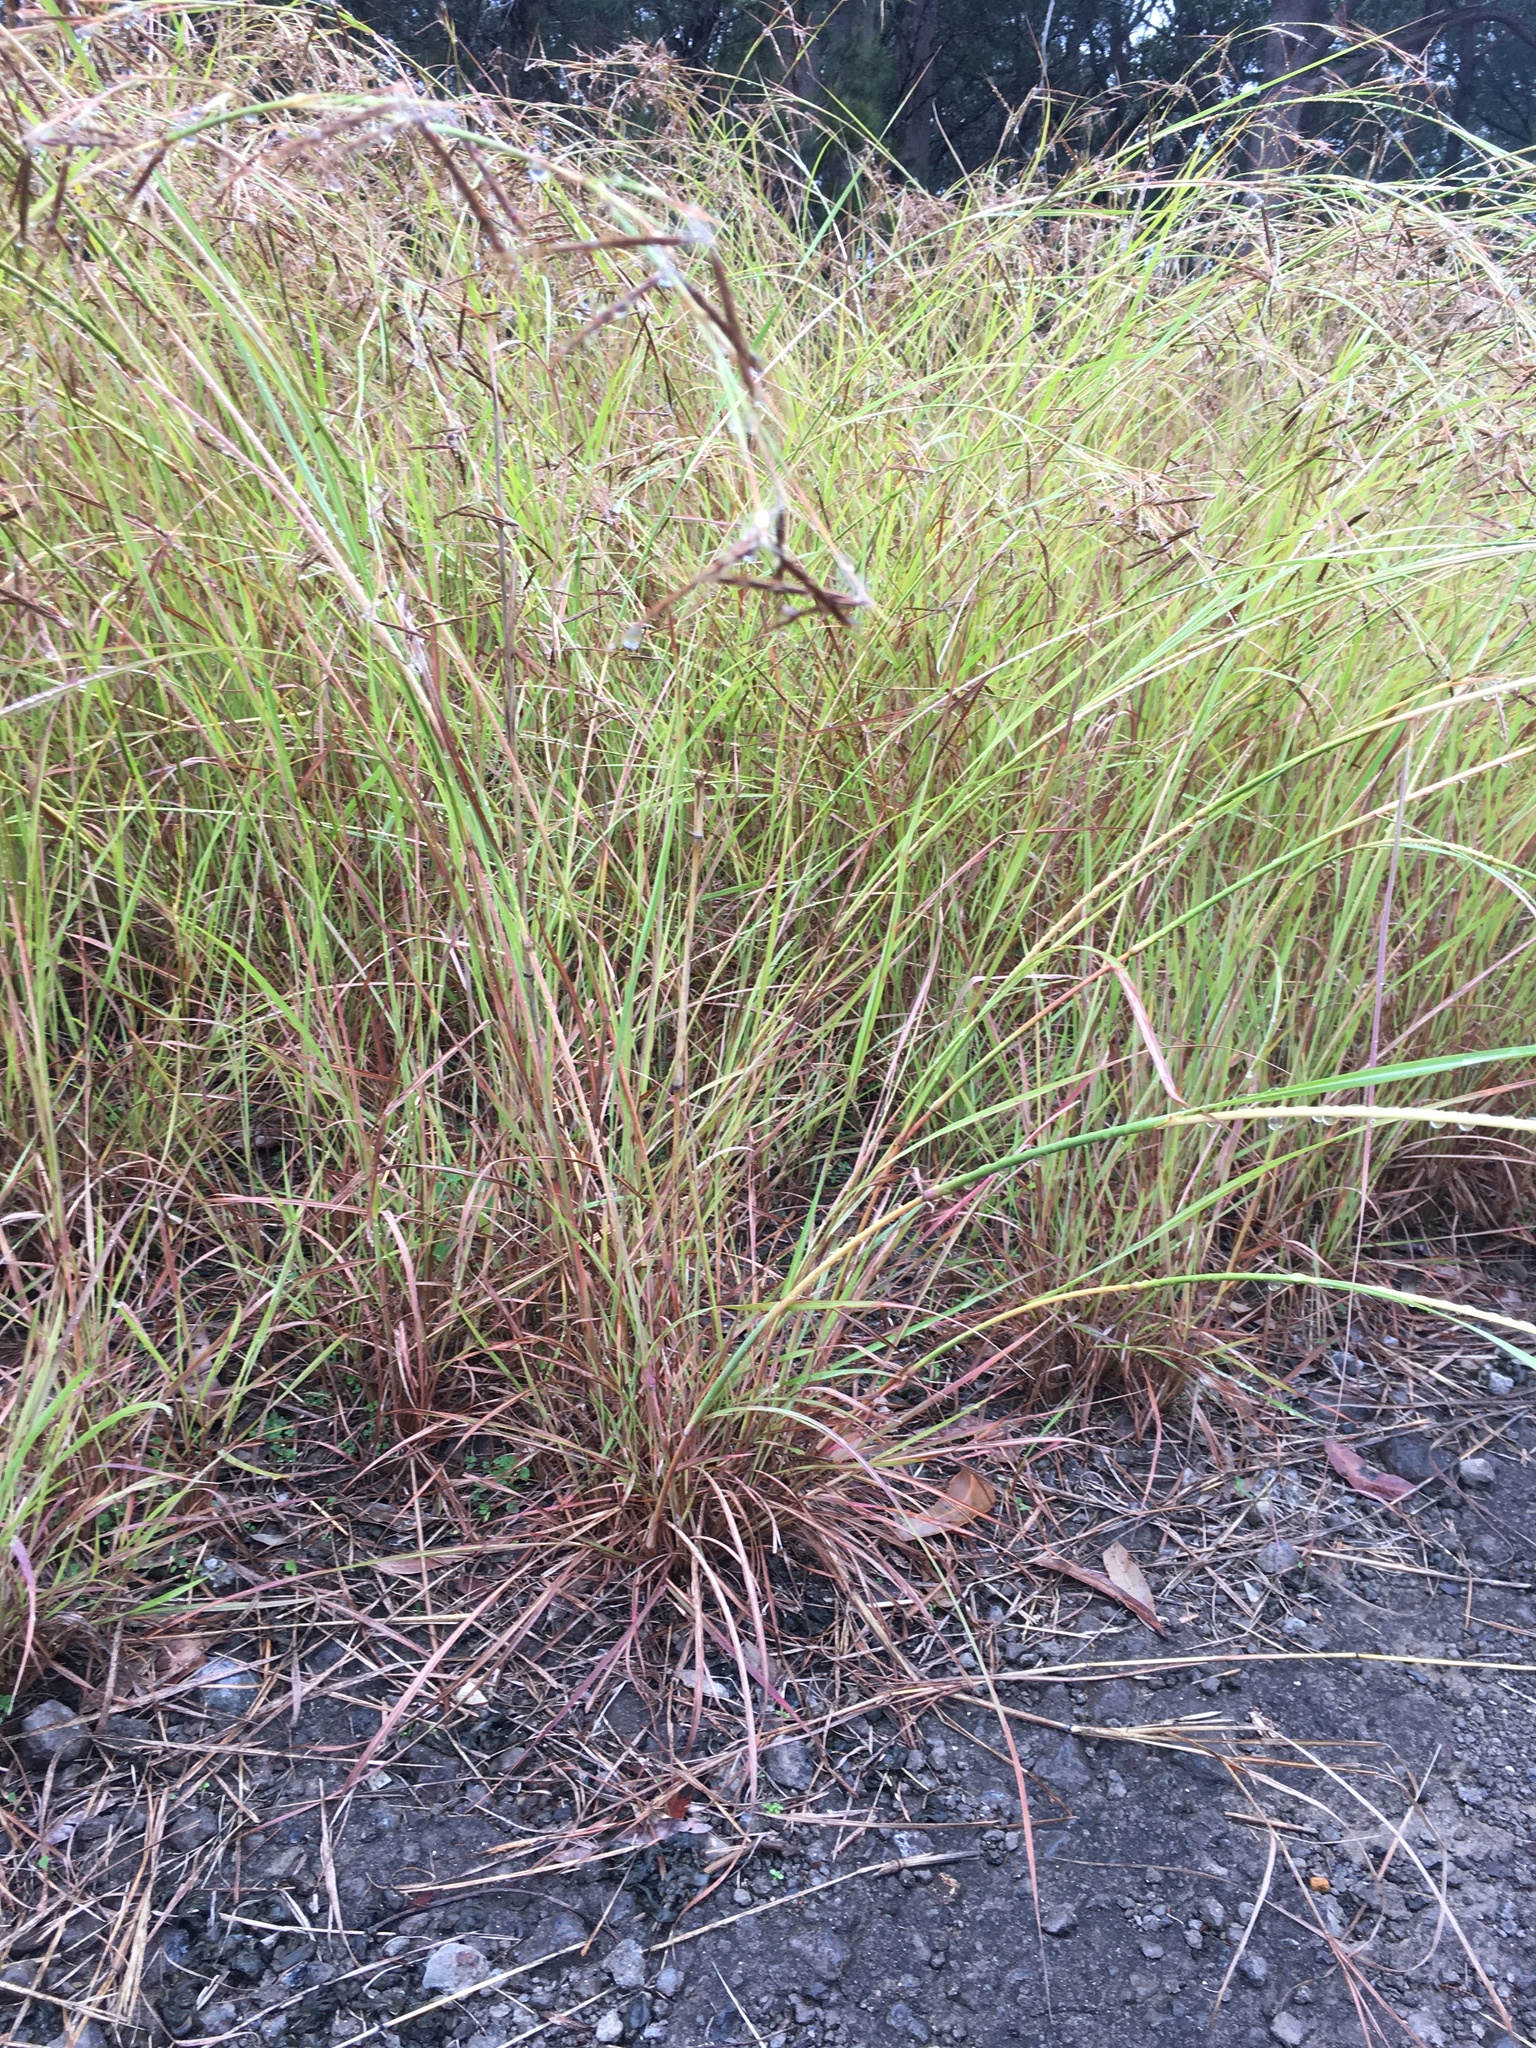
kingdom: Plantae
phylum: Tracheophyta
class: Liliopsida
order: Poales
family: Poaceae
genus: Hyparrhenia
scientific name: Hyparrhenia hirta
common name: Thatching grass
